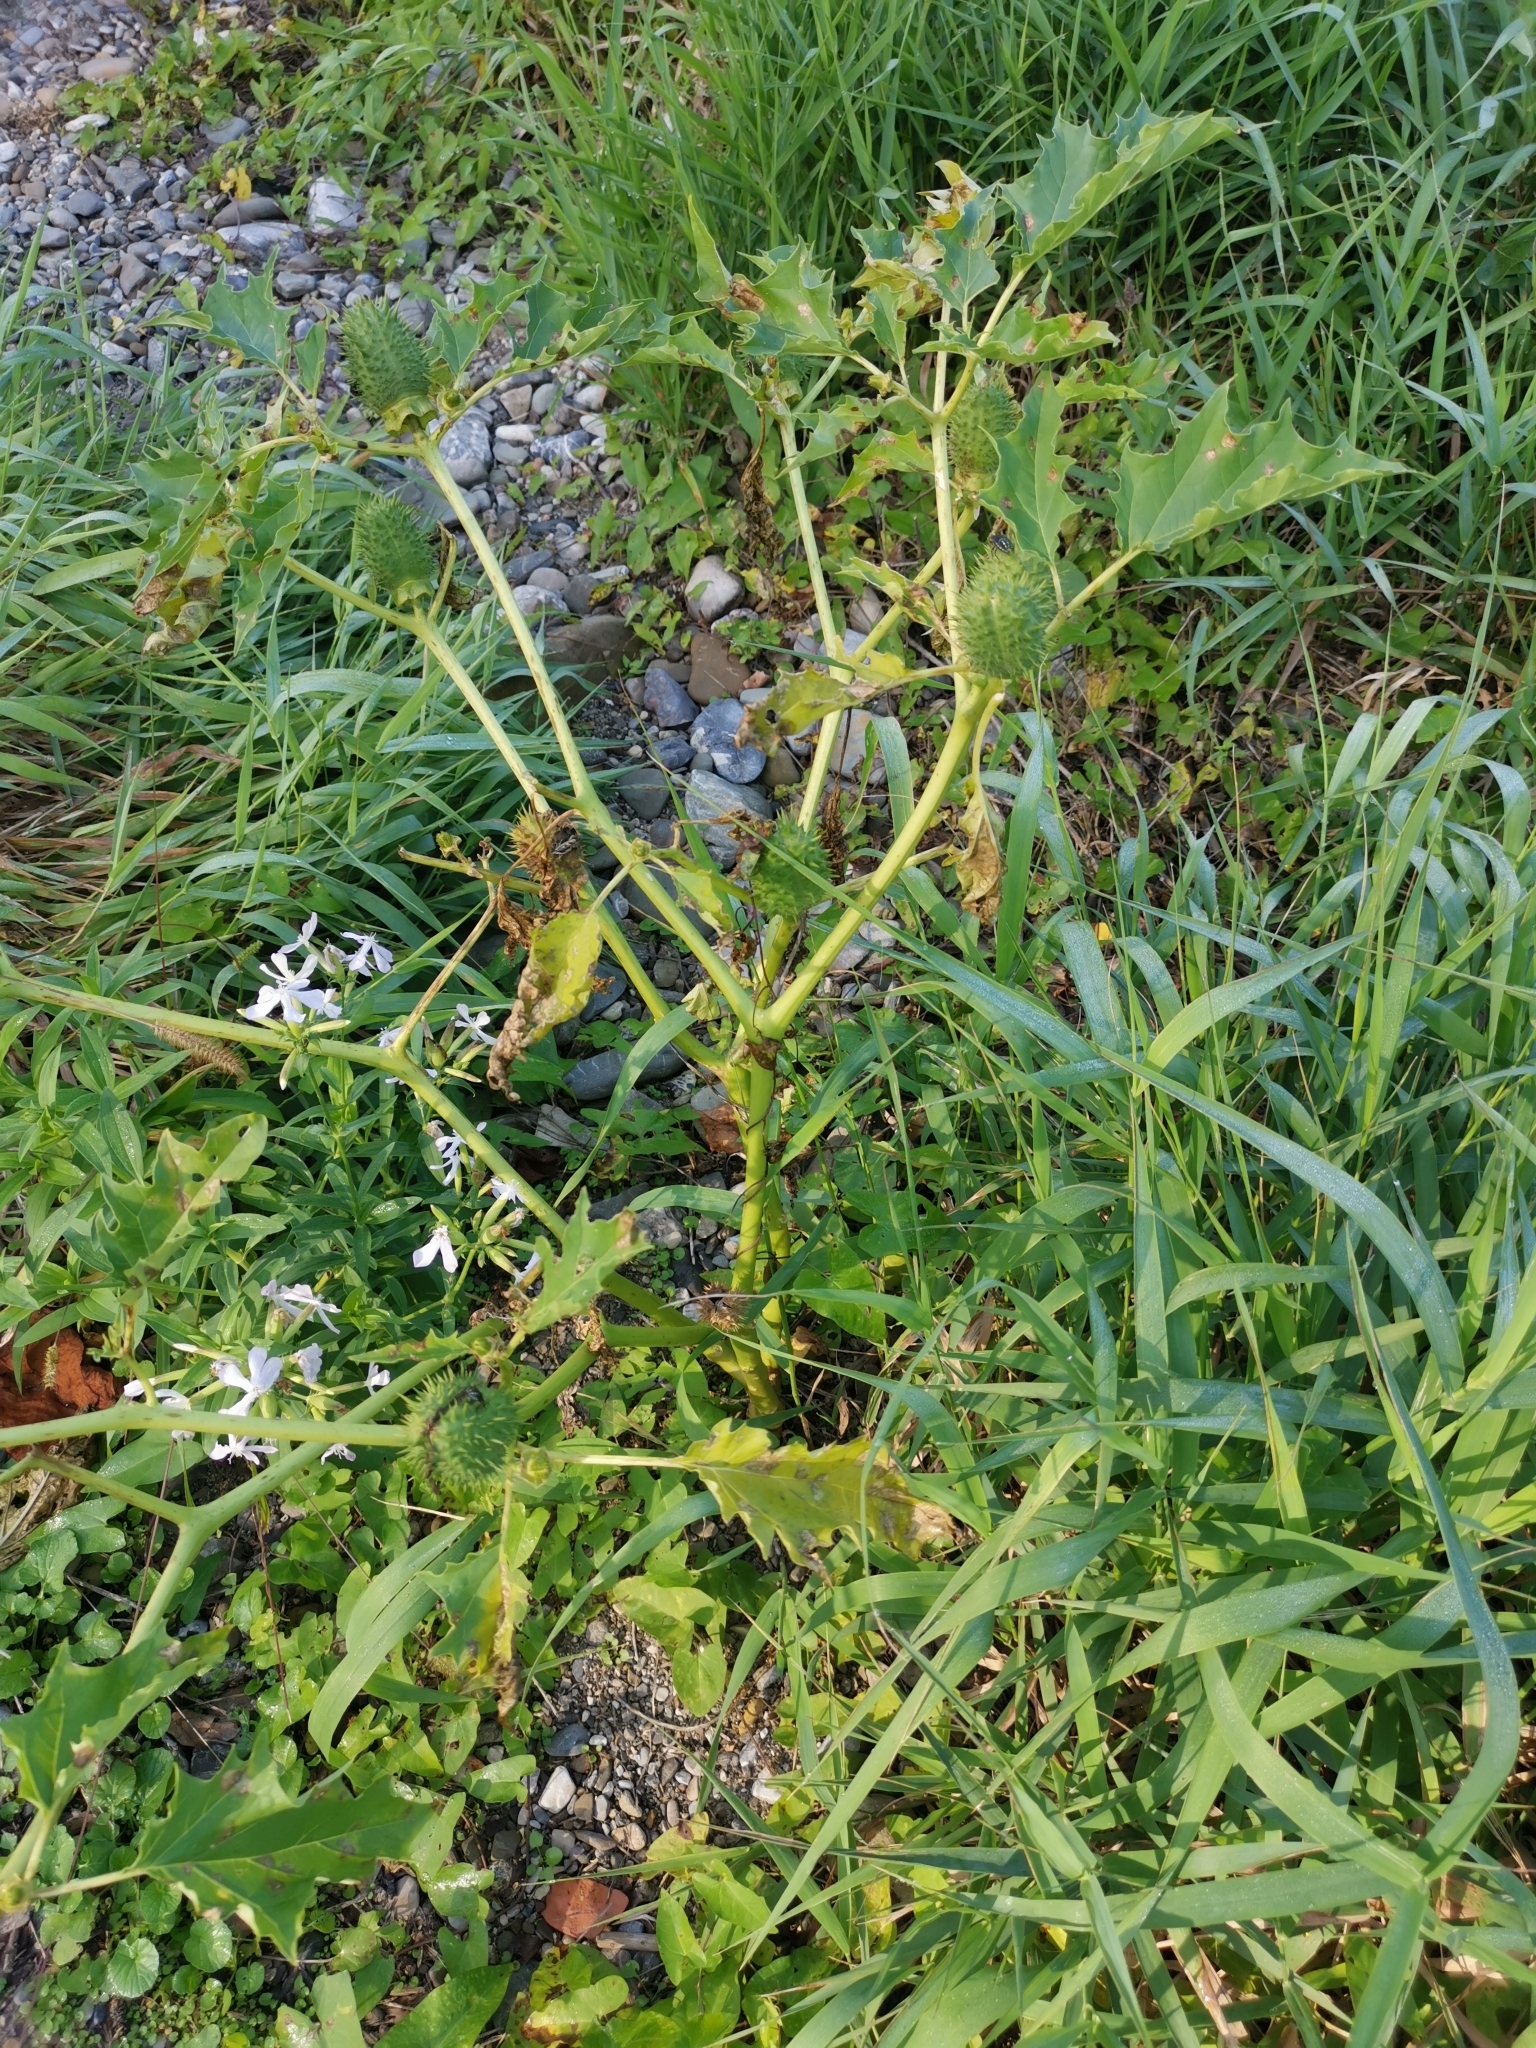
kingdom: Plantae
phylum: Tracheophyta
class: Magnoliopsida
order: Solanales
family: Solanaceae
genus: Datura
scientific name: Datura stramonium
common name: Thorn-apple
